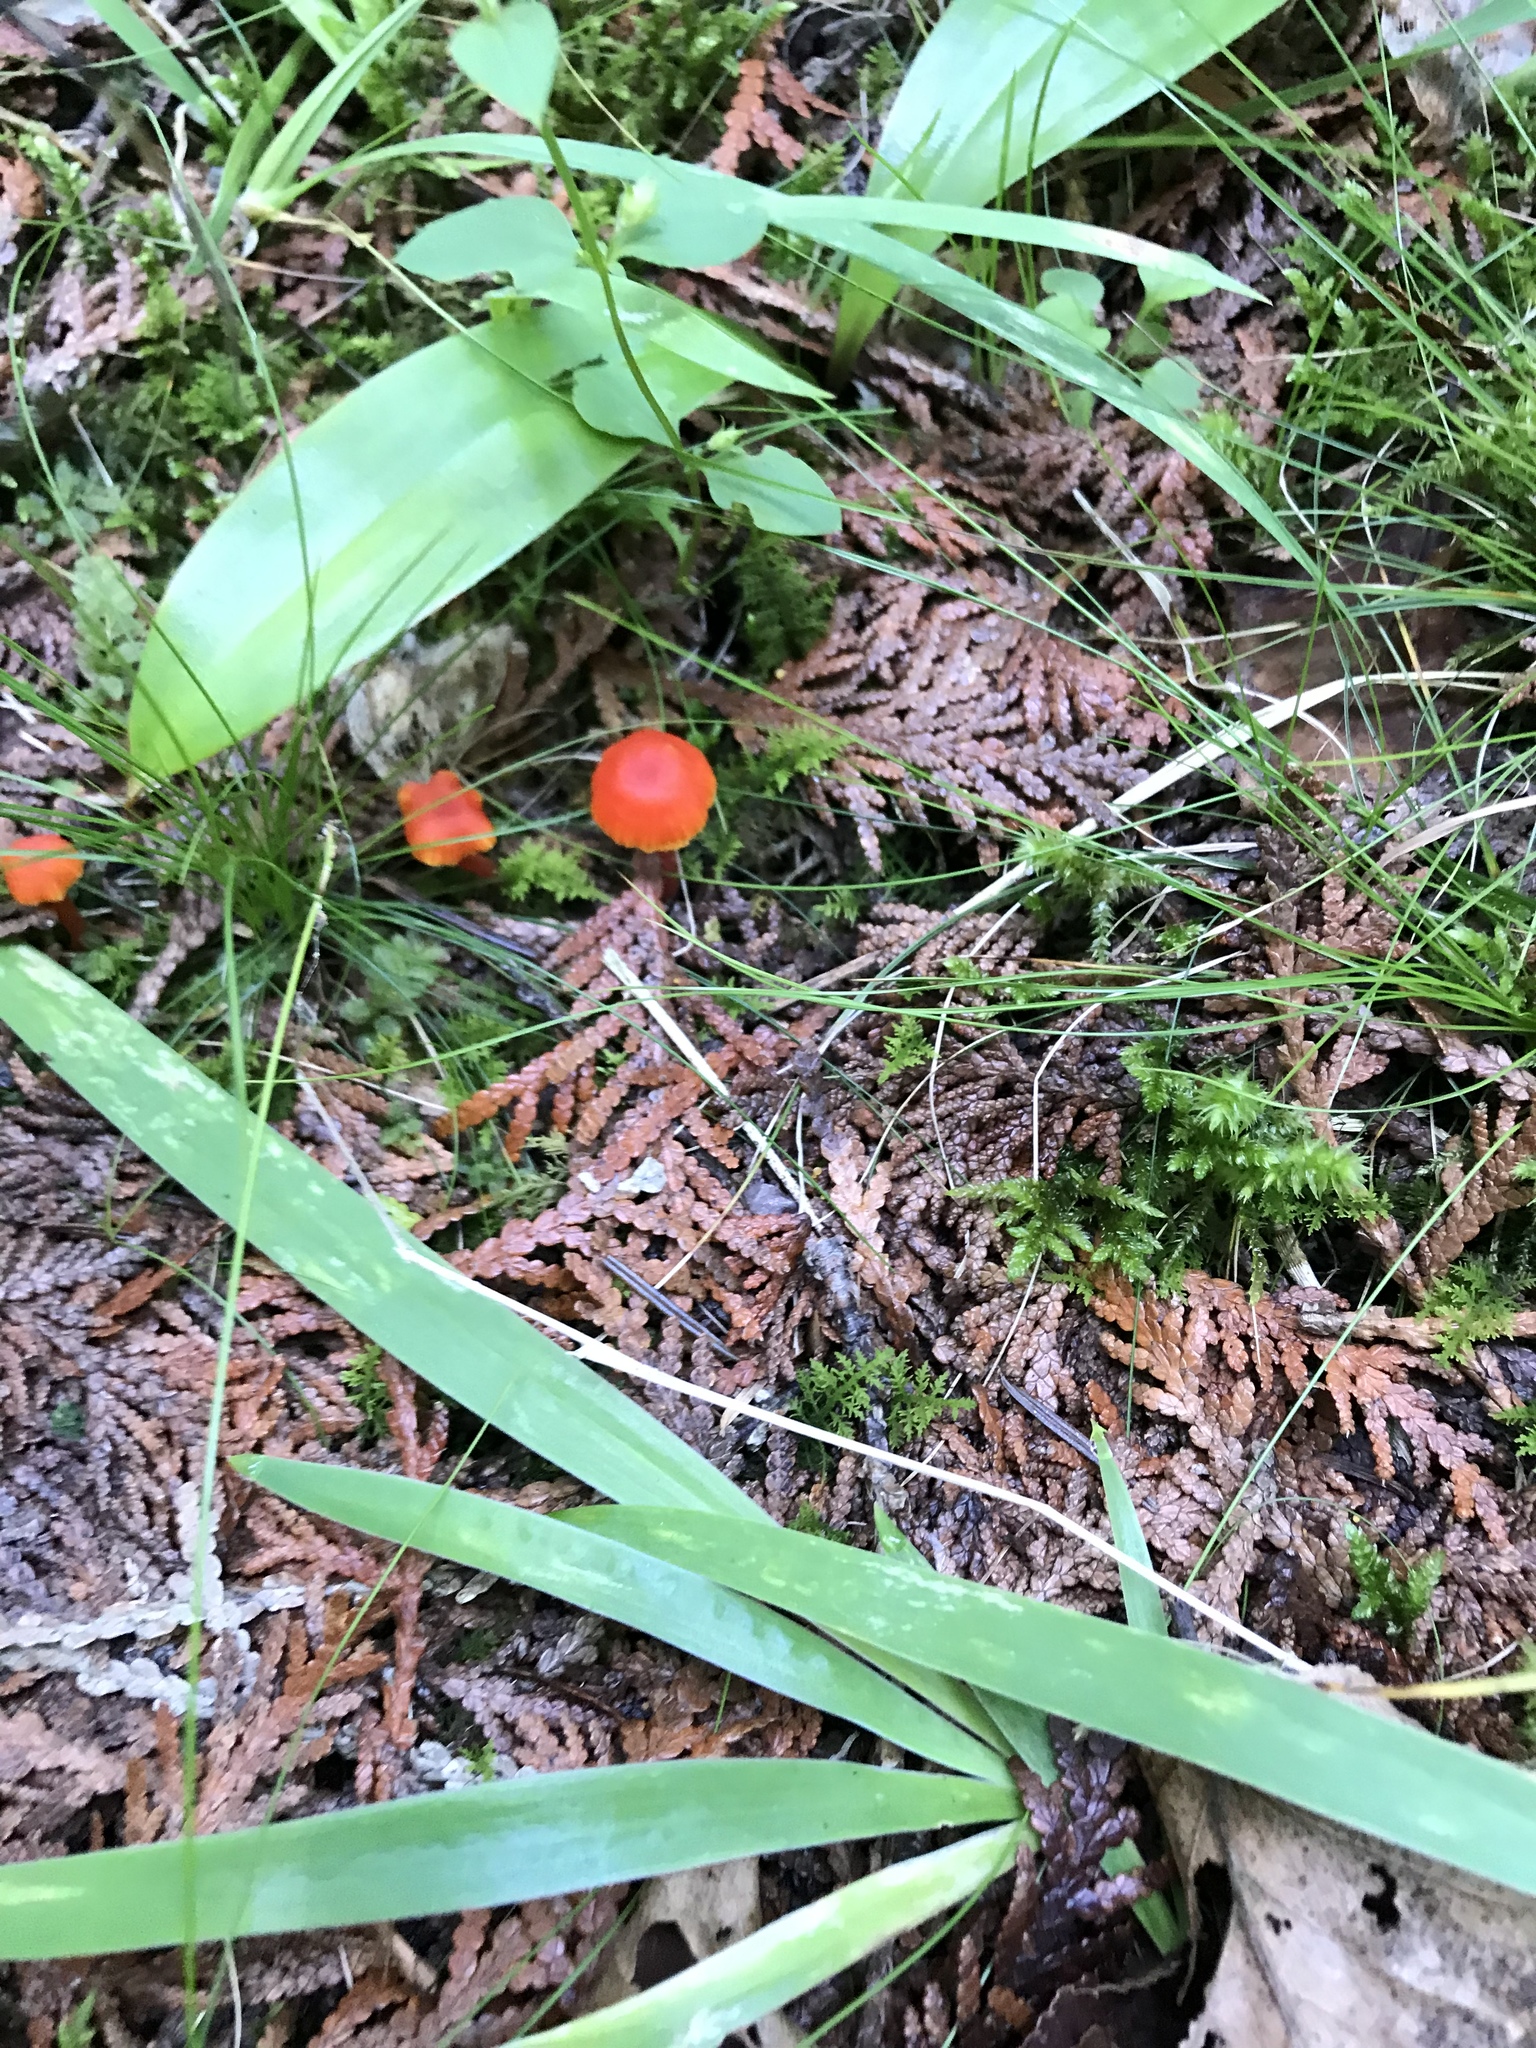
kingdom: Fungi
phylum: Basidiomycota
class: Agaricomycetes
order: Agaricales
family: Hygrophoraceae
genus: Hygrocybe
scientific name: Hygrocybe coccinea
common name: Scarlet hood
